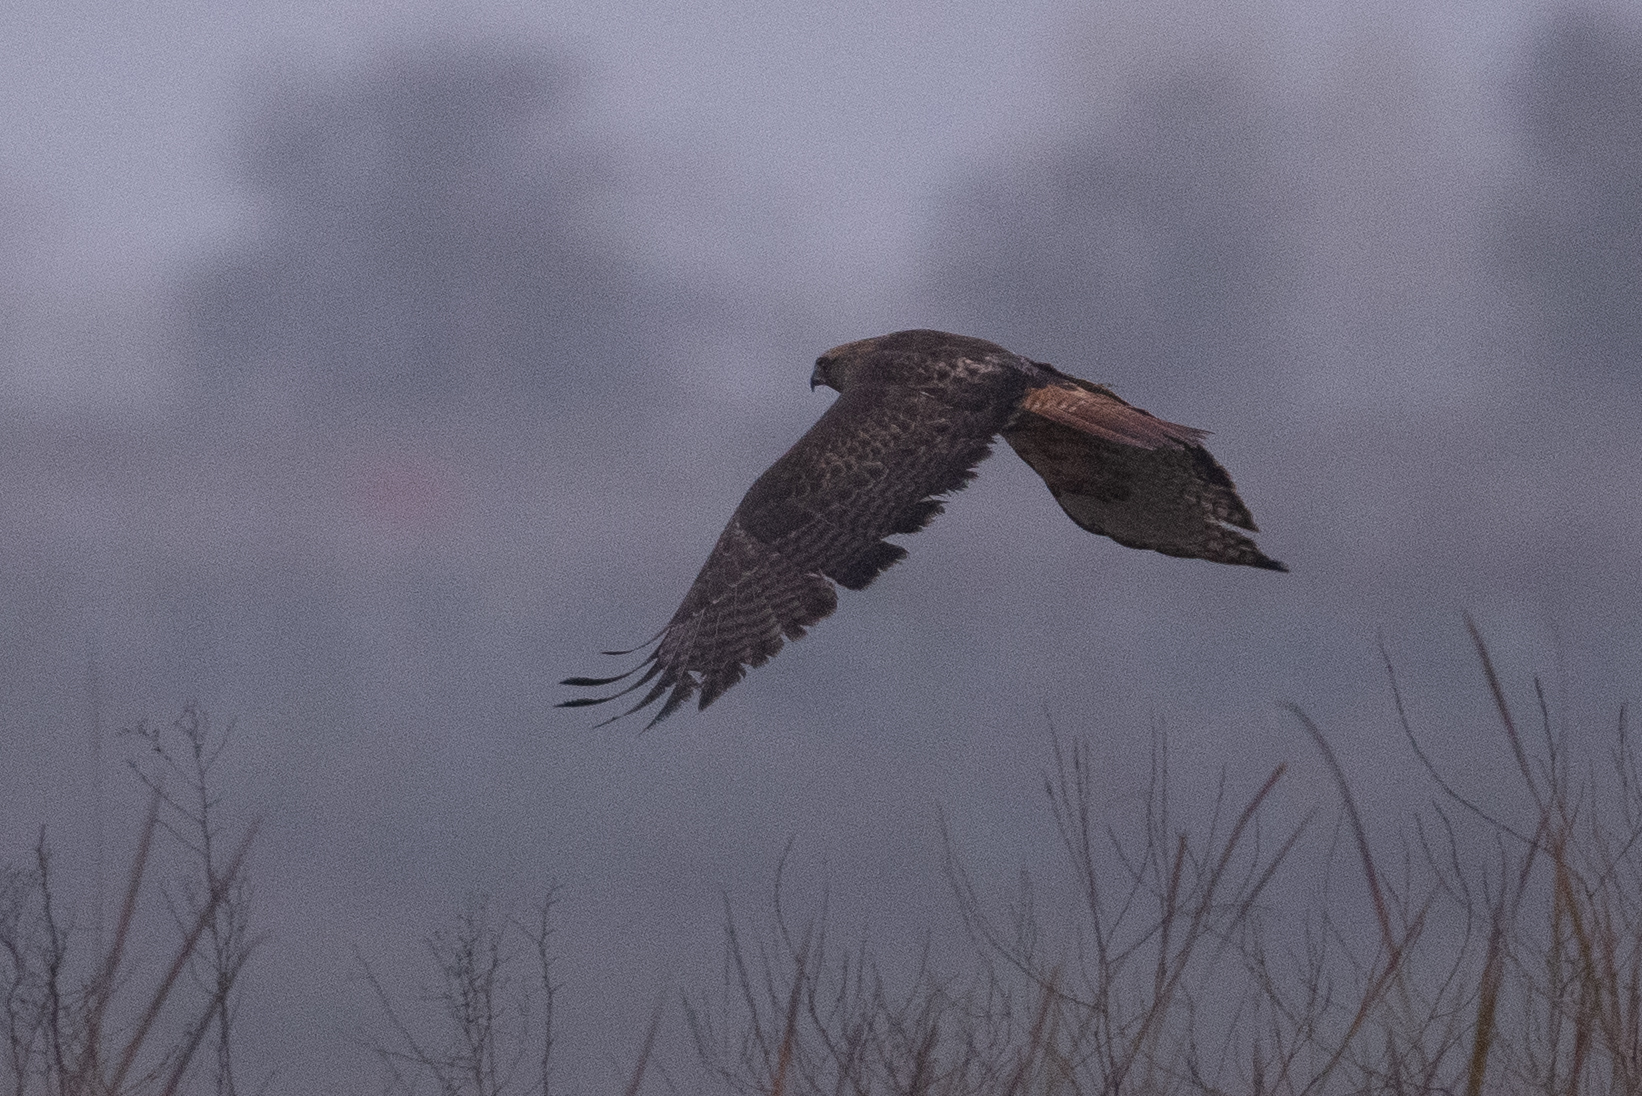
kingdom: Animalia
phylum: Chordata
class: Aves
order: Accipitriformes
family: Accipitridae
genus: Buteo
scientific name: Buteo jamaicensis
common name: Red-tailed hawk
